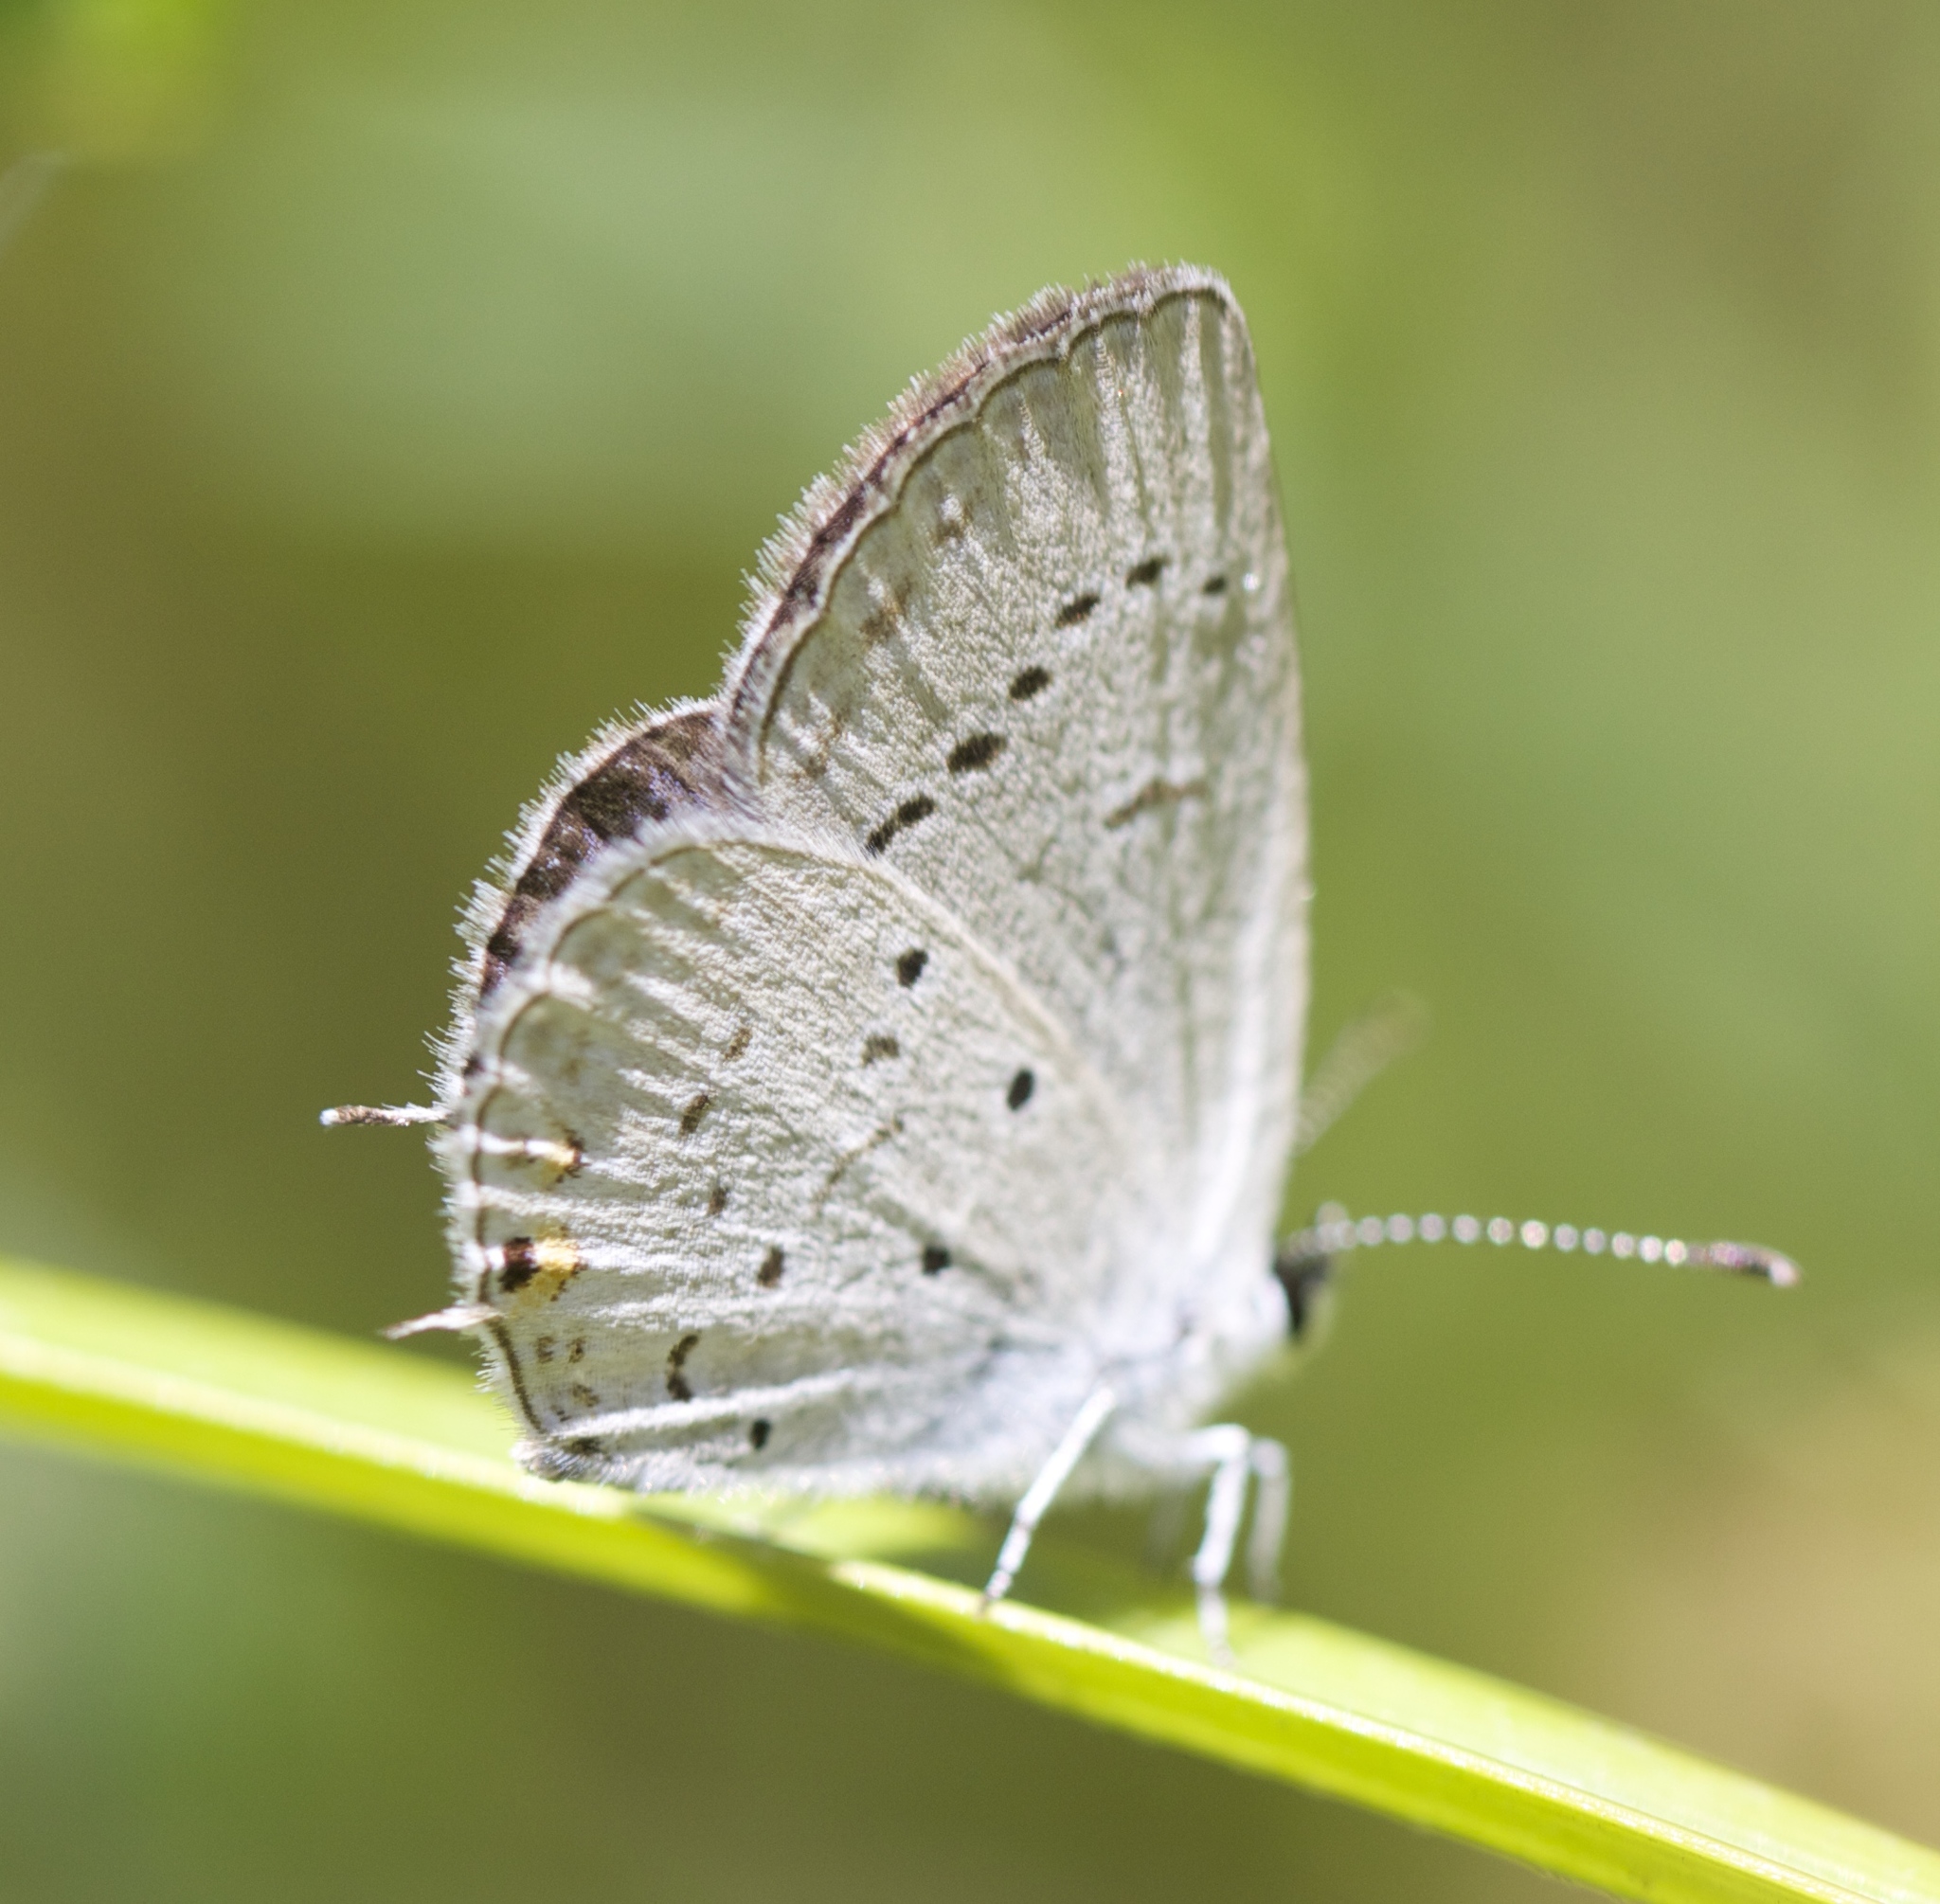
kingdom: Animalia
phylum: Arthropoda
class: Insecta
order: Lepidoptera
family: Lycaenidae
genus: Elkalyce
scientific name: Elkalyce comyntas
